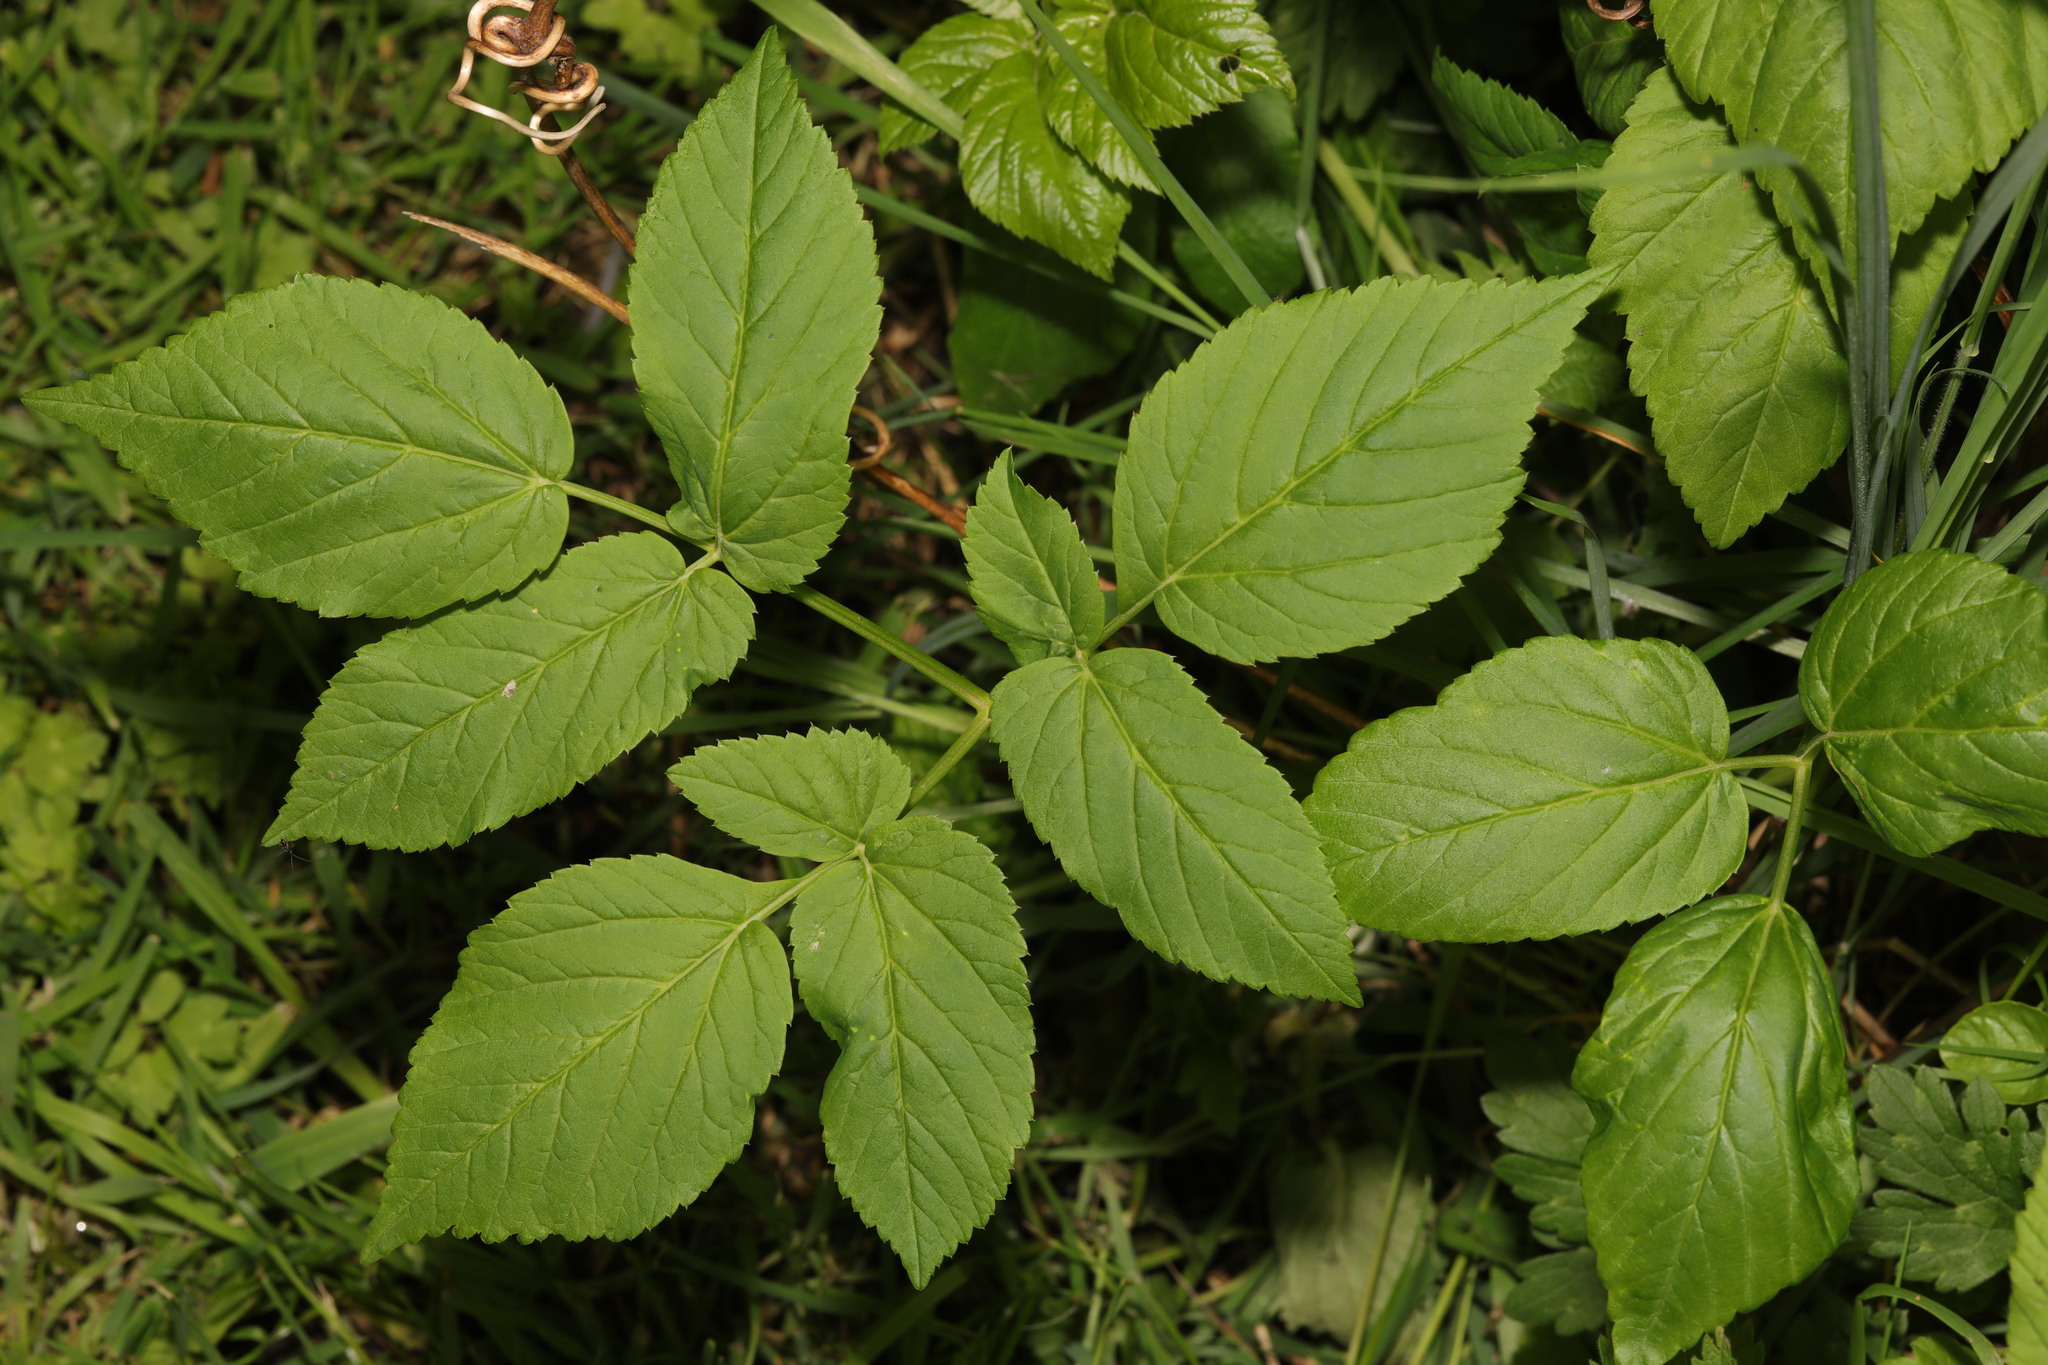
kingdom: Plantae
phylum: Tracheophyta
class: Magnoliopsida
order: Apiales
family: Apiaceae
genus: Aegopodium
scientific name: Aegopodium podagraria
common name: Ground-elder
